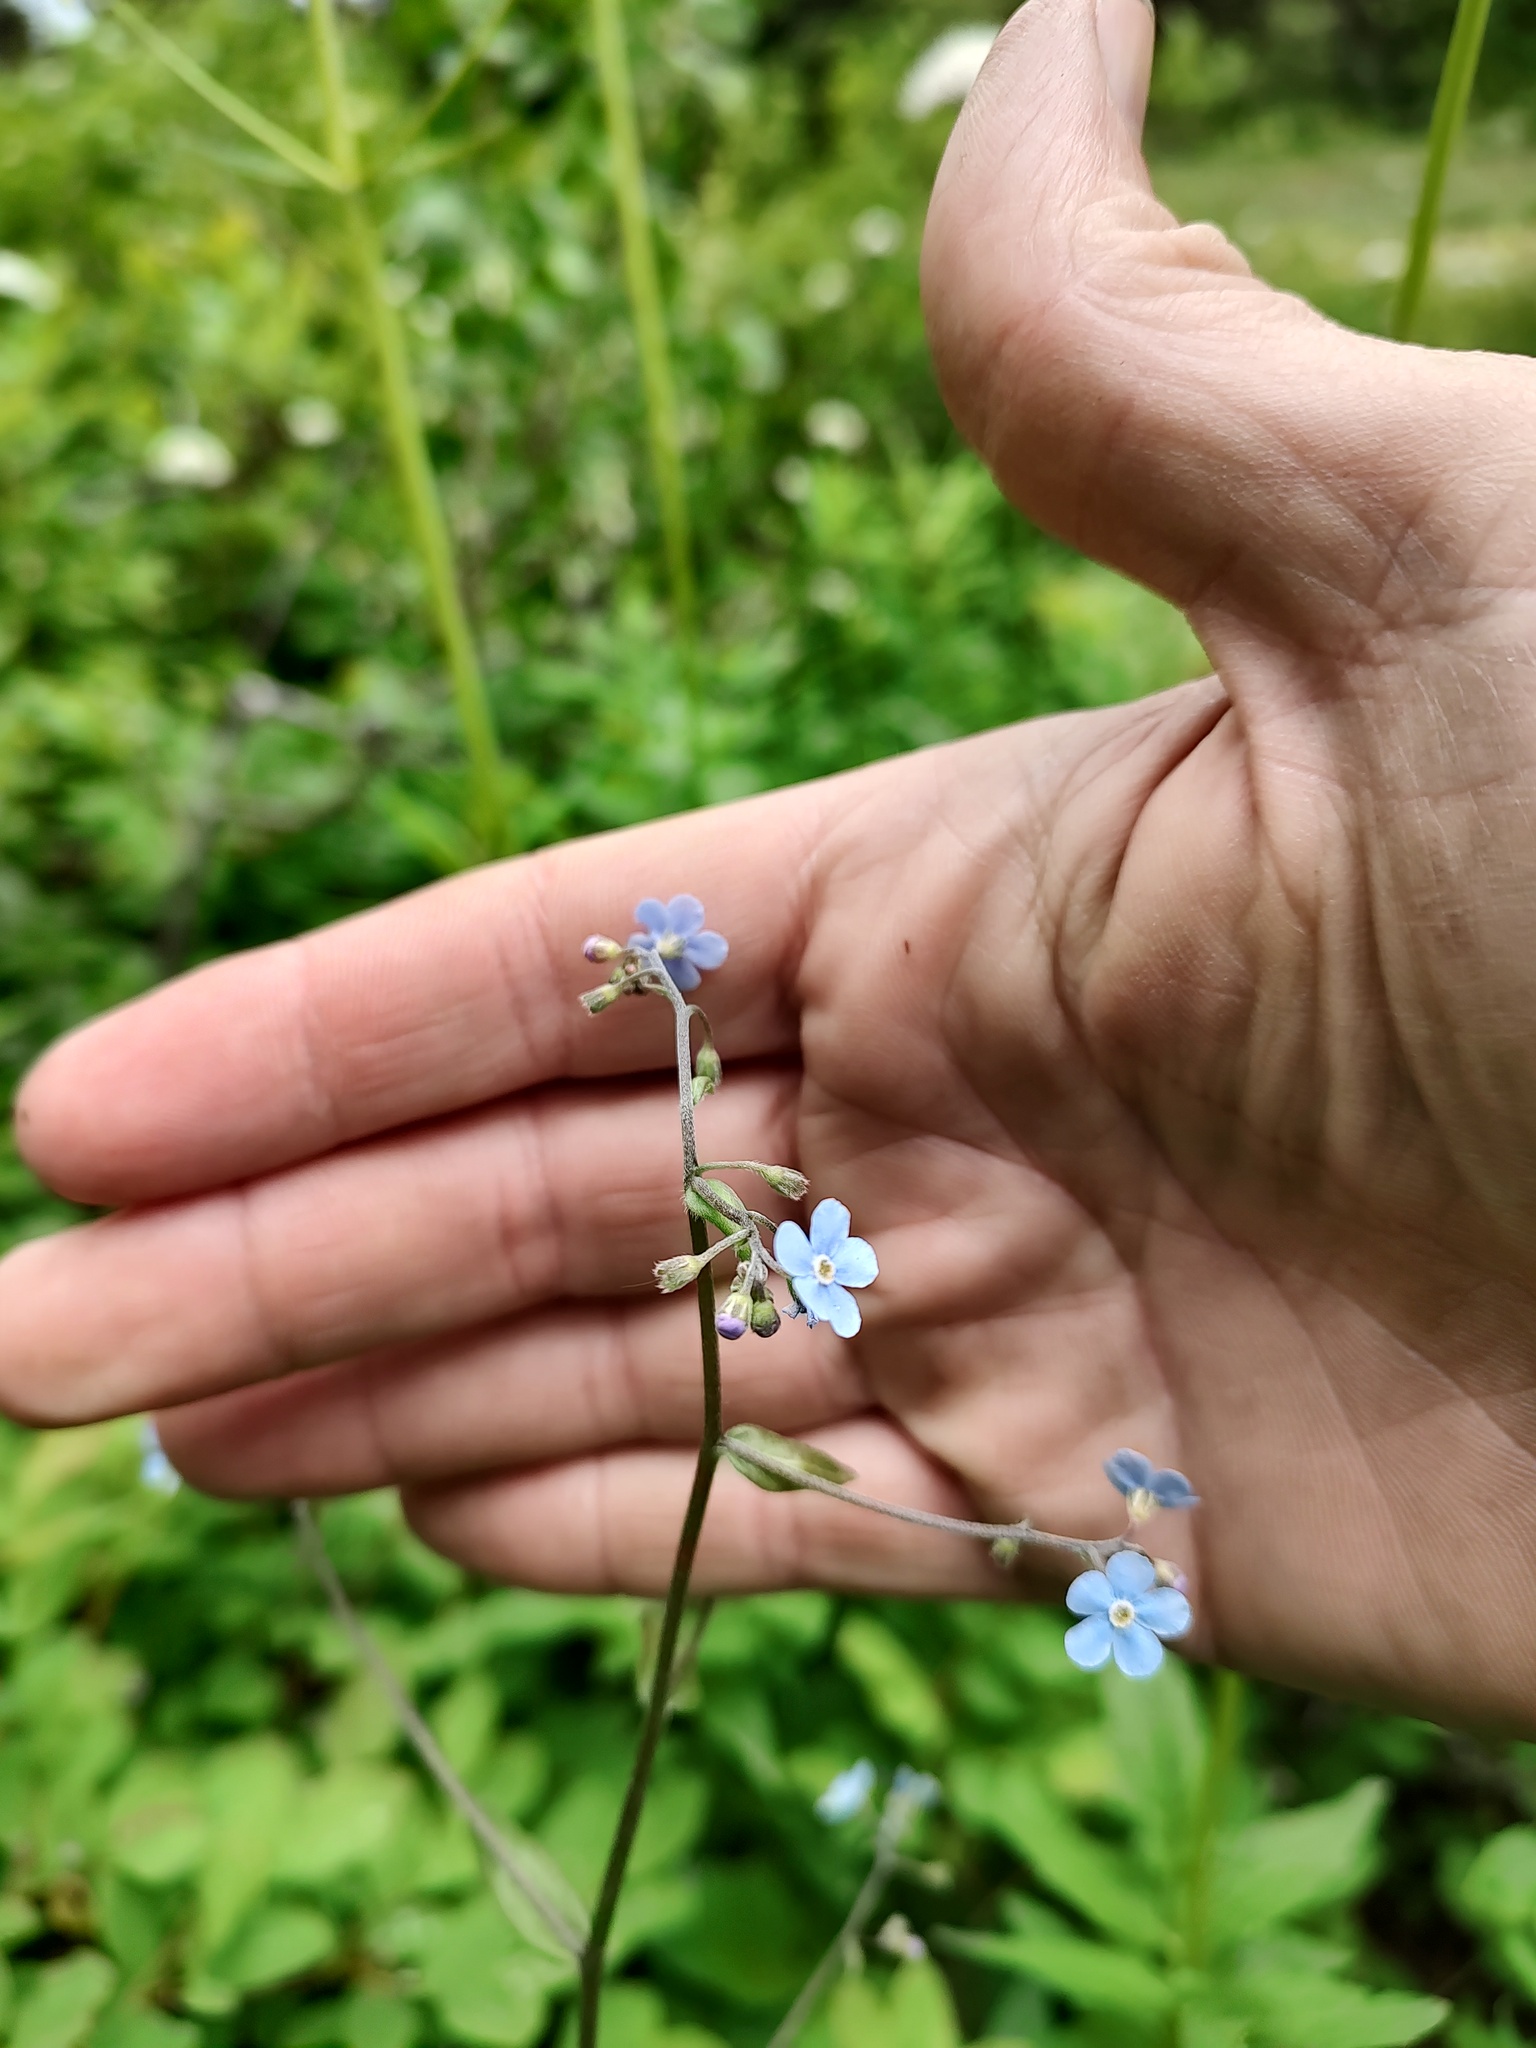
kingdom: Plantae
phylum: Tracheophyta
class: Magnoliopsida
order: Boraginales
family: Boraginaceae
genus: Hackelia
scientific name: Hackelia floribunda
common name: Large-flowered stickseed
